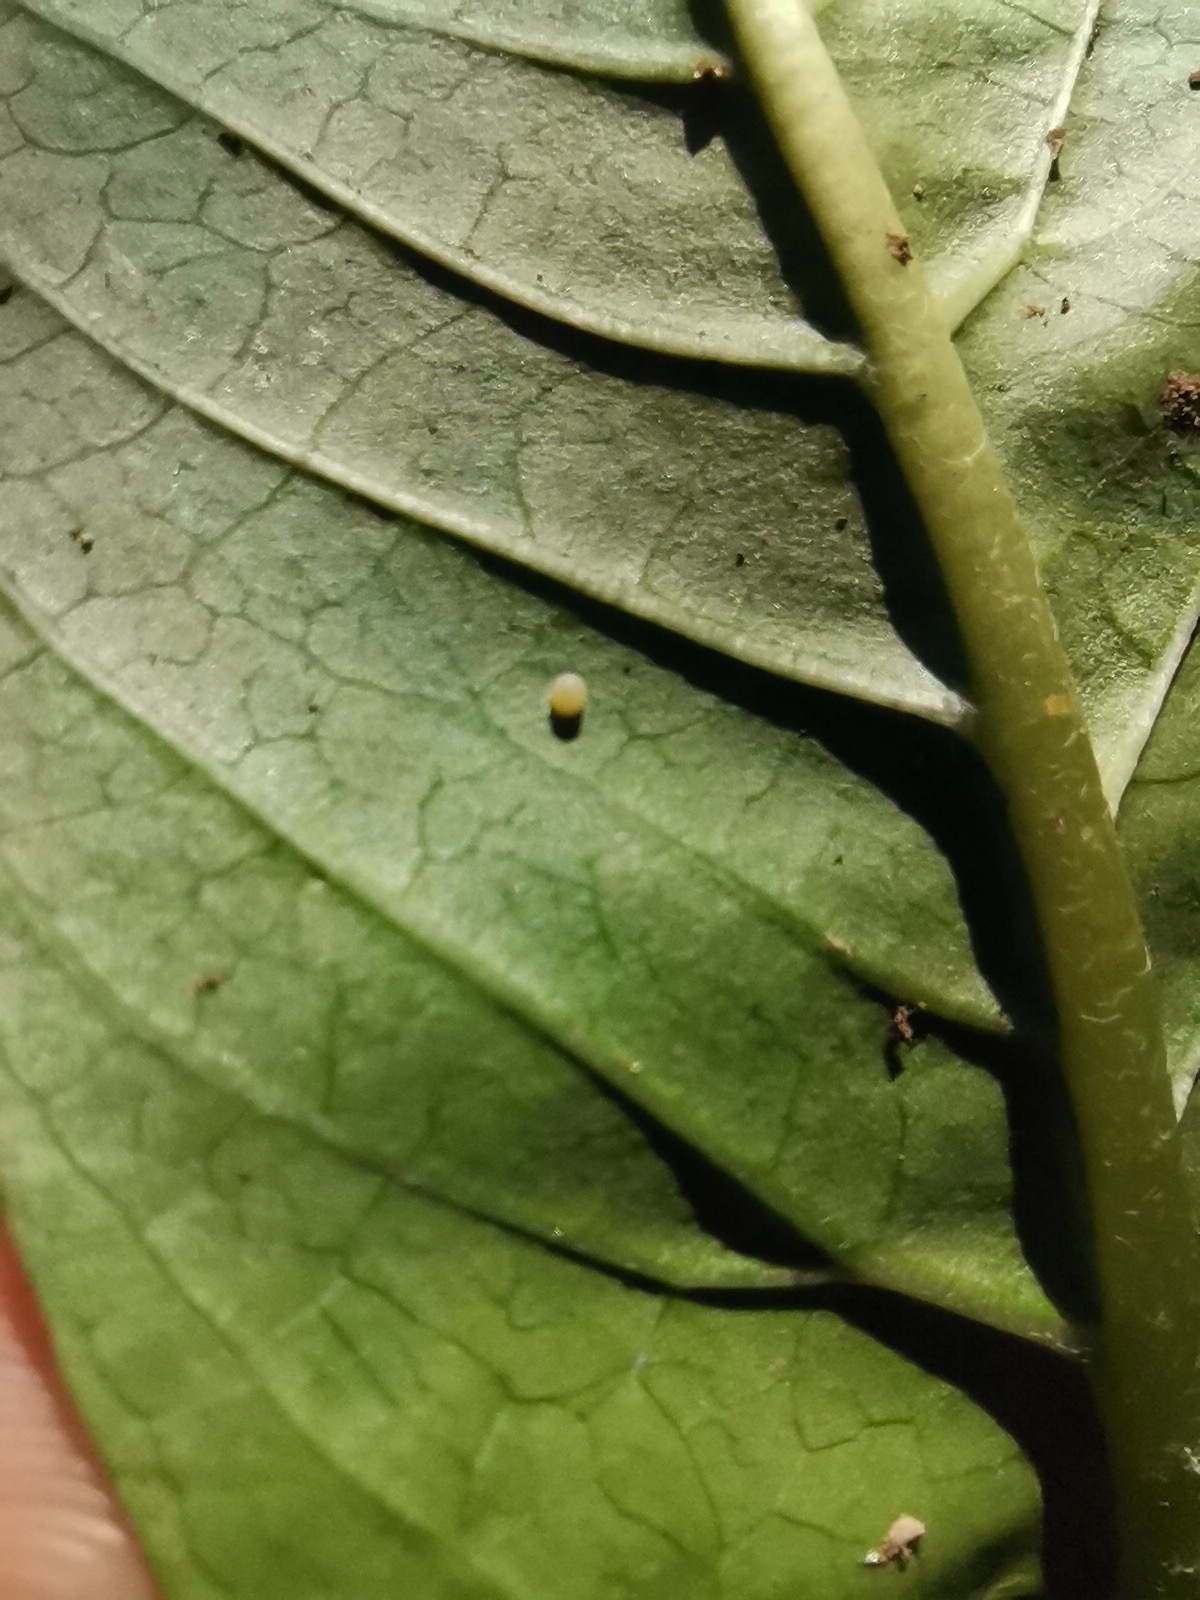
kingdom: Animalia
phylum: Arthropoda
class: Insecta
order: Lepidoptera
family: Nymphalidae
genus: Danaus
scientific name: Danaus plexippus
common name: Monarch
